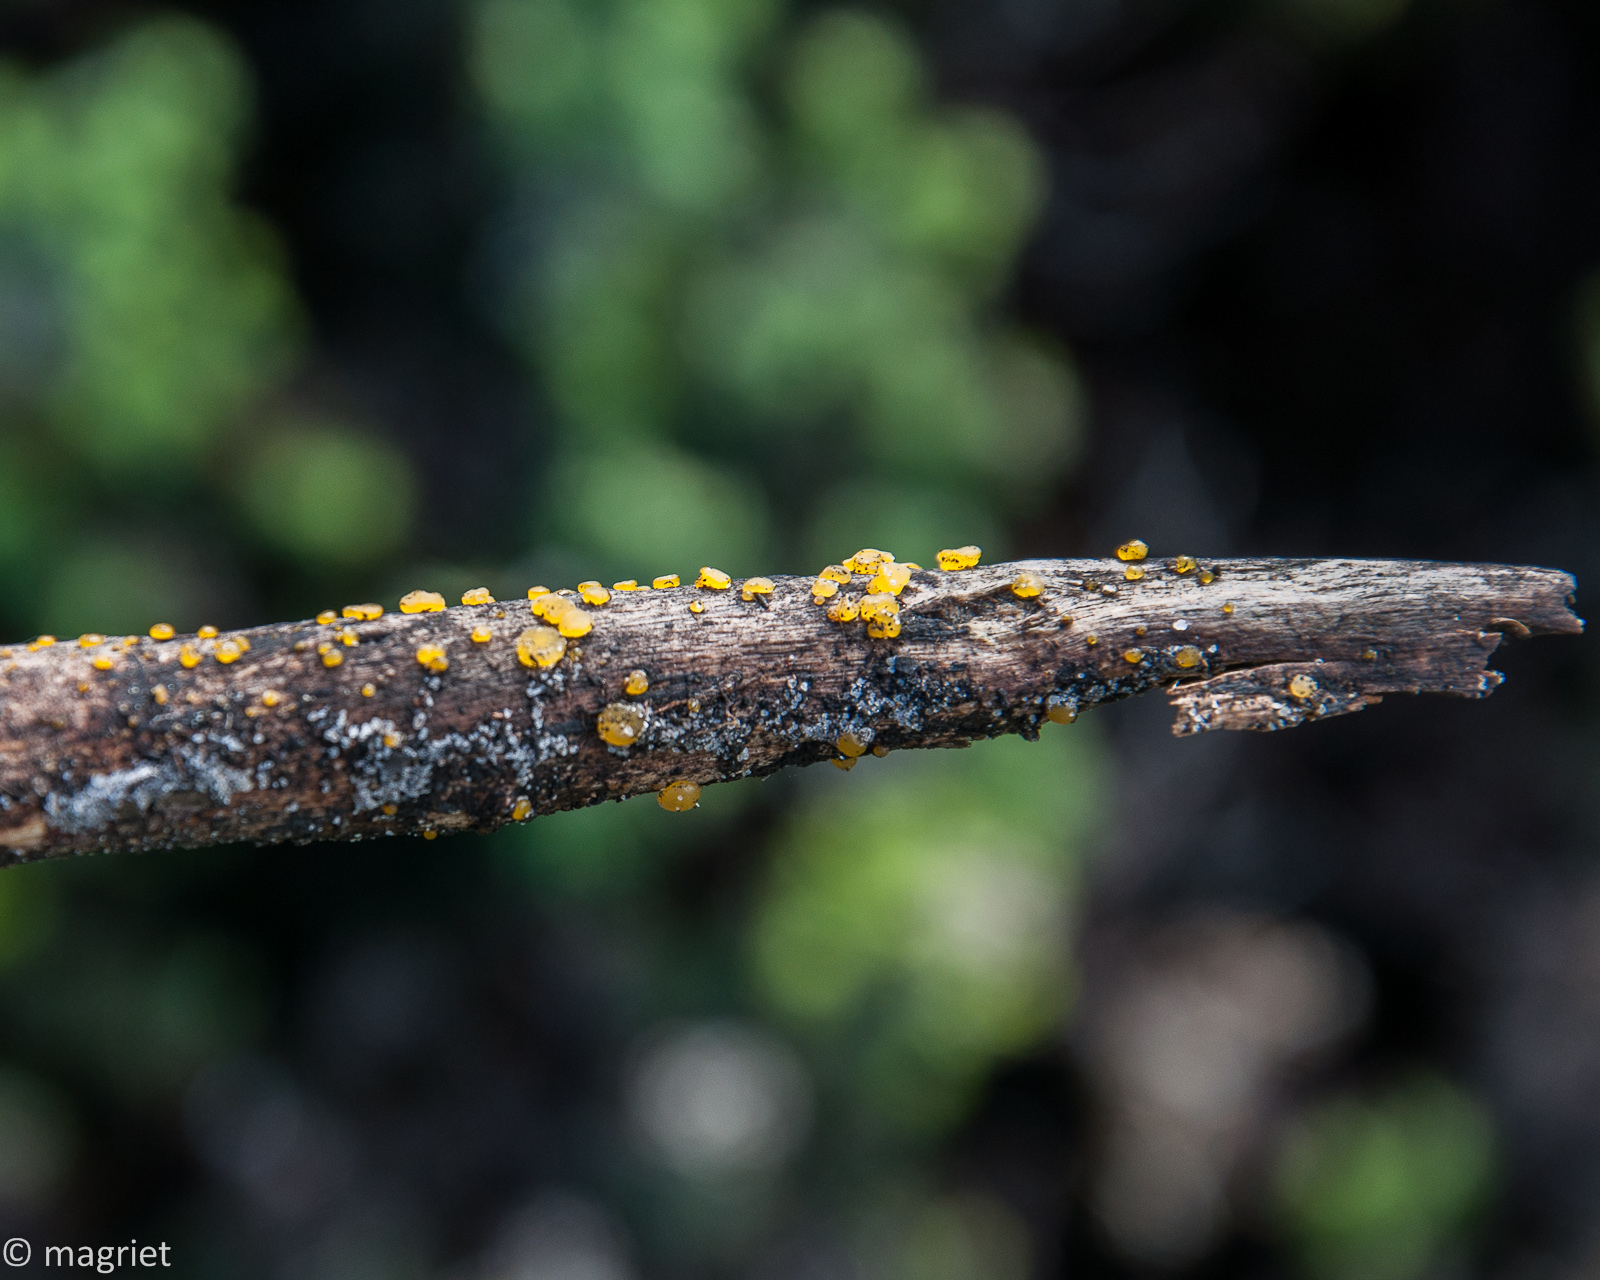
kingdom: Fungi
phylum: Basidiomycota
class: Dacrymycetes
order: Dacrymycetales
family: Dacrymycetaceae
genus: Dacrymyces
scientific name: Dacrymyces stillatus
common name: Common jelly spot
